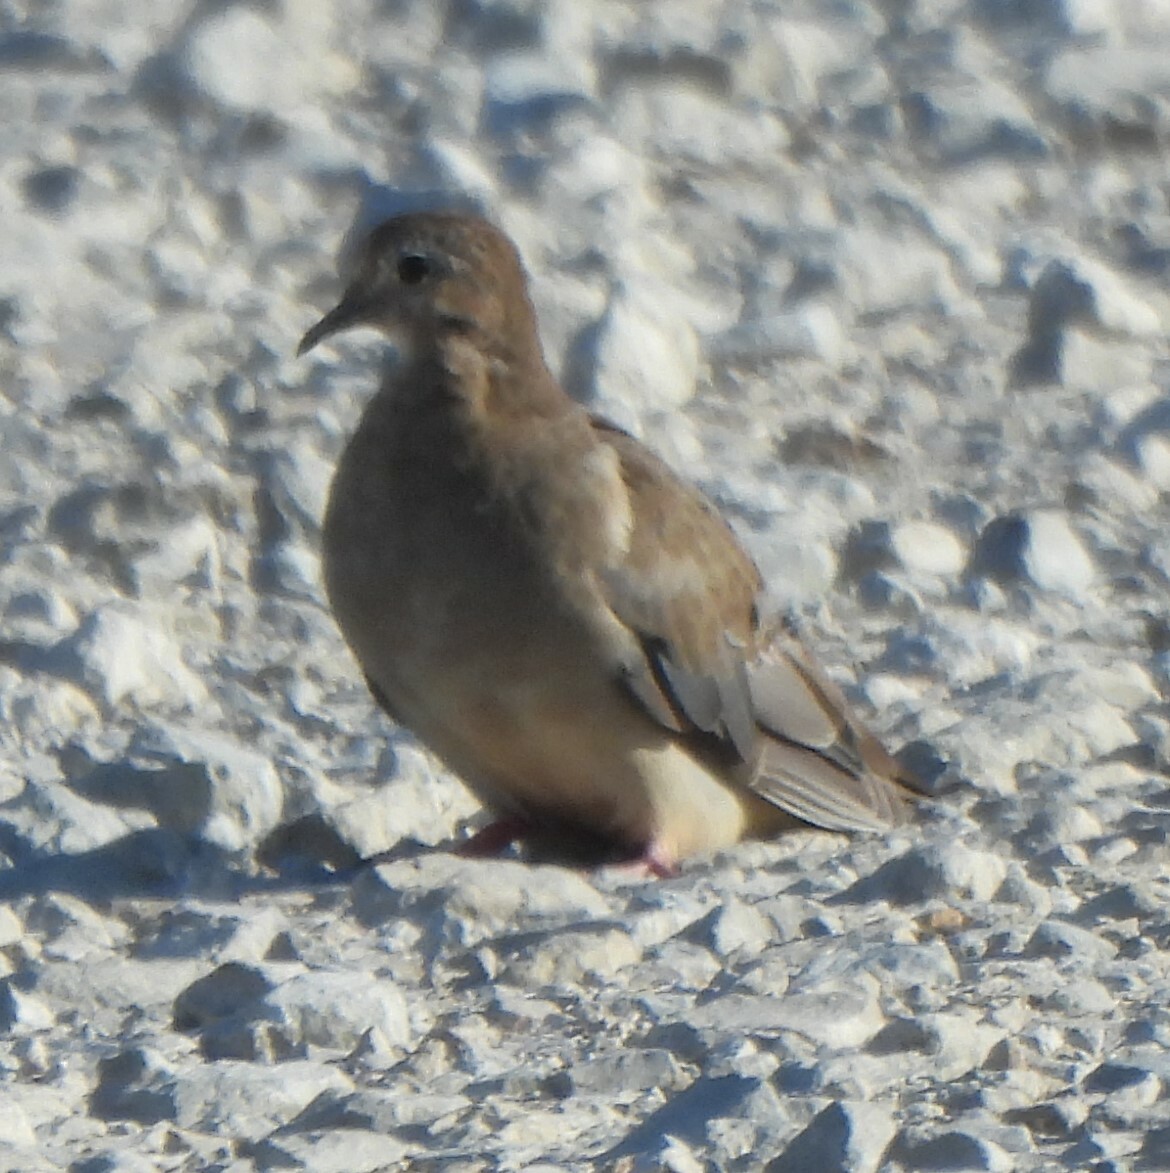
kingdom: Animalia
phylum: Chordata
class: Aves
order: Columbiformes
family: Columbidae
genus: Zenaida
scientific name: Zenaida macroura
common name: Mourning dove
